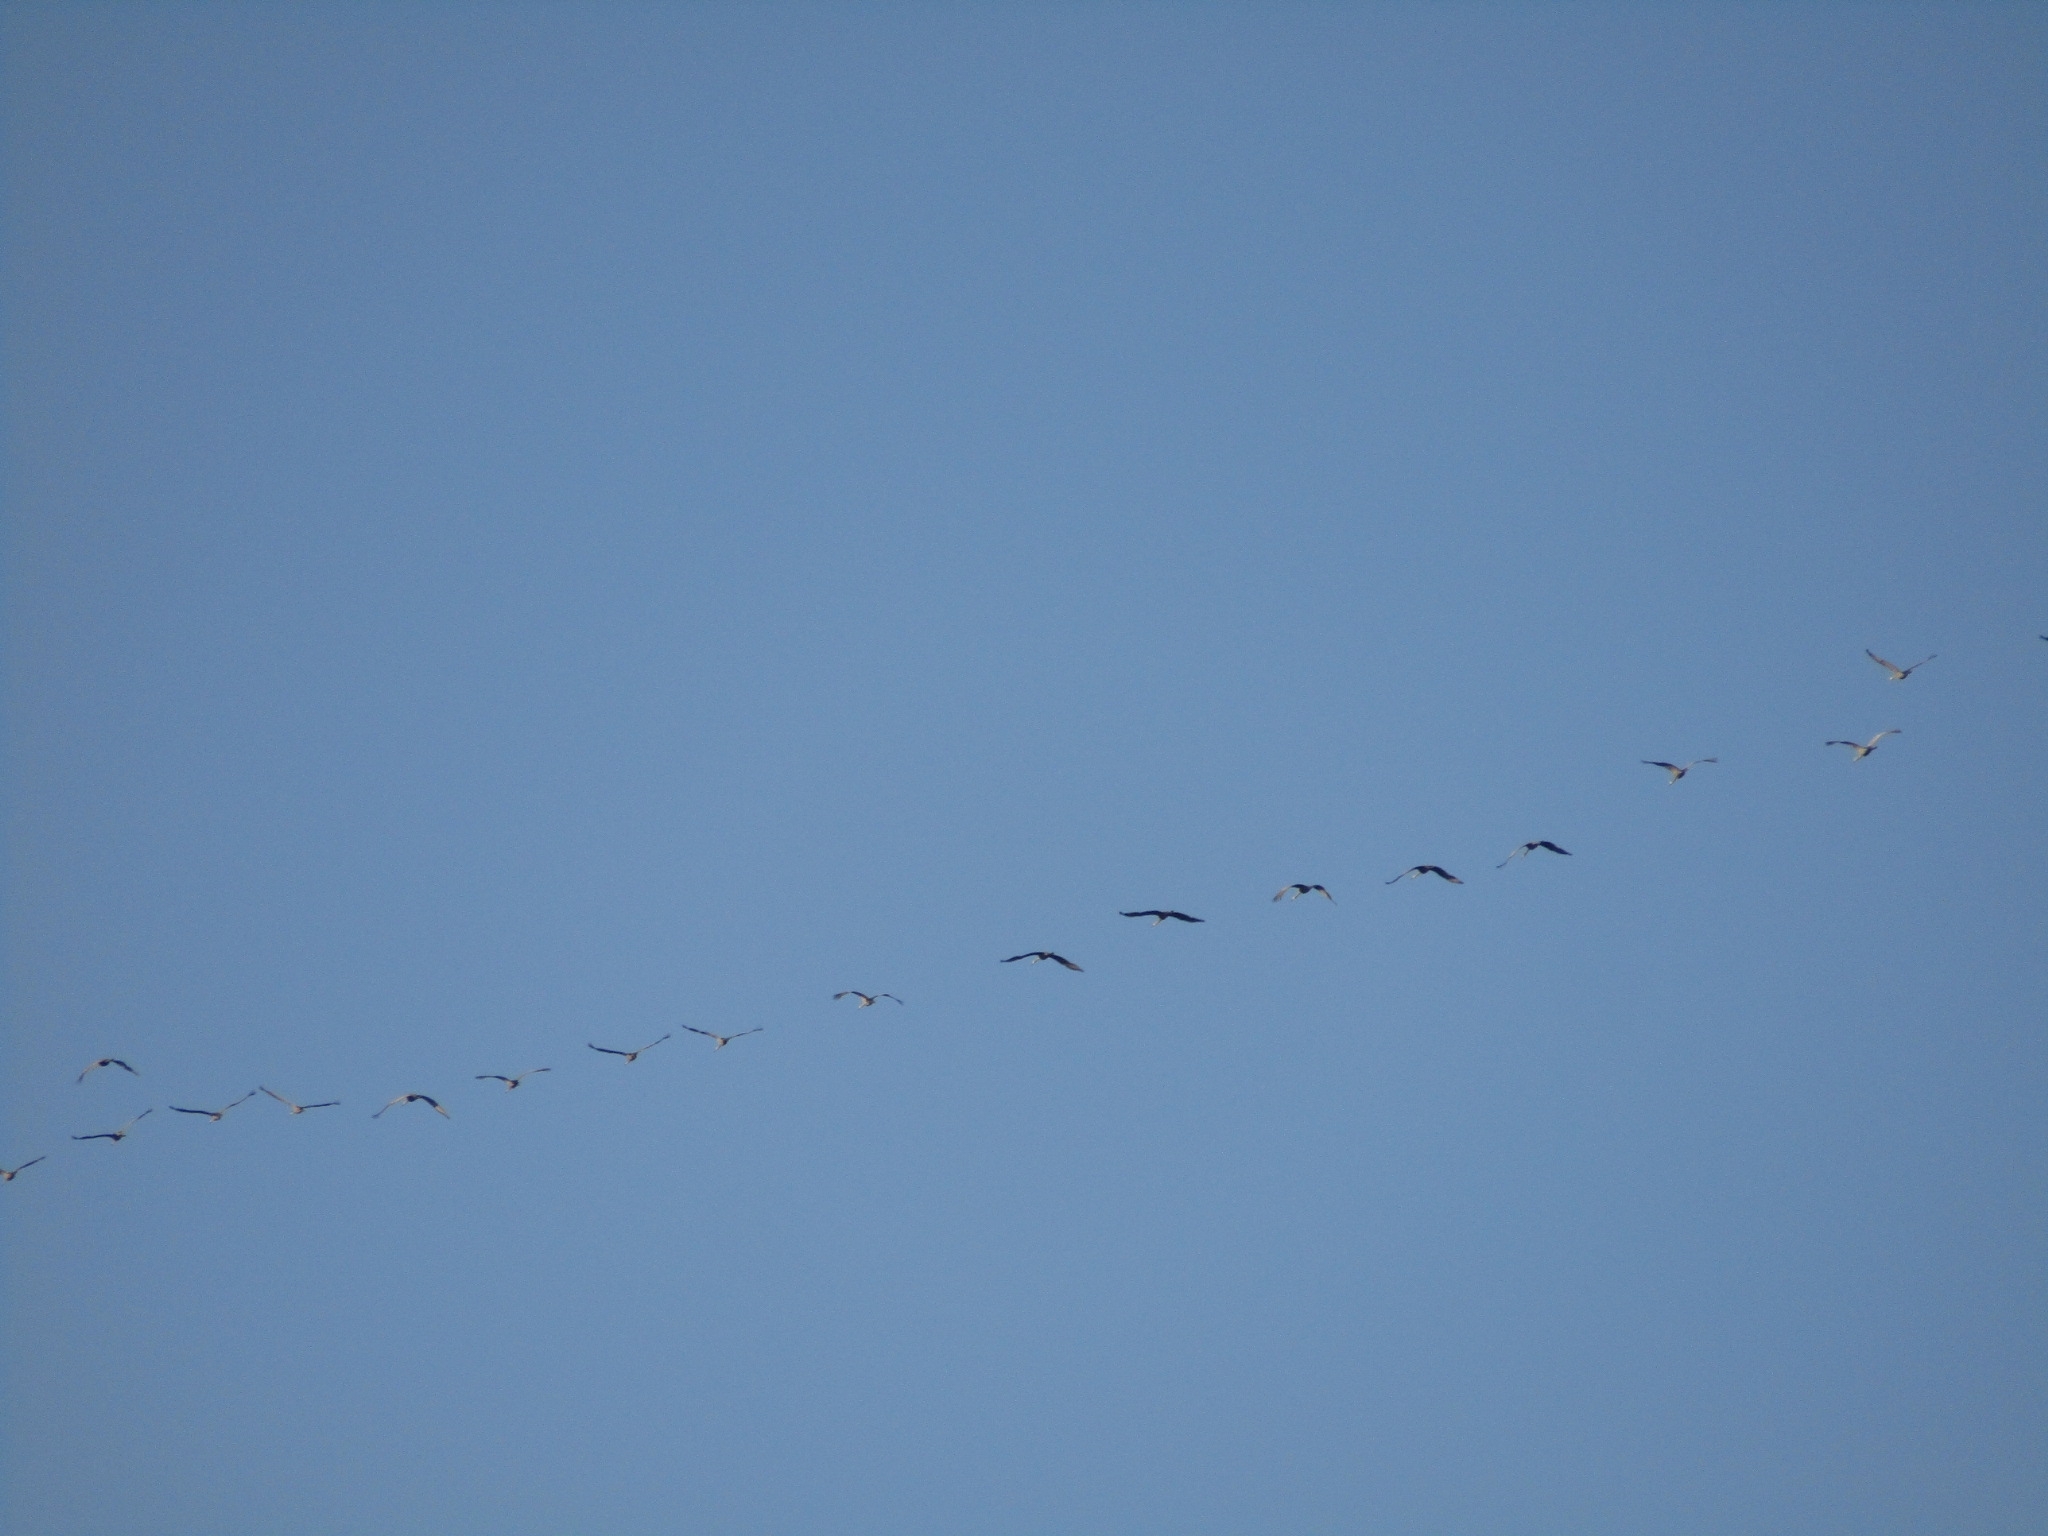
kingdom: Animalia
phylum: Chordata
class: Aves
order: Gruiformes
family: Gruidae
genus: Grus
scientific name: Grus canadensis
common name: Sandhill crane
